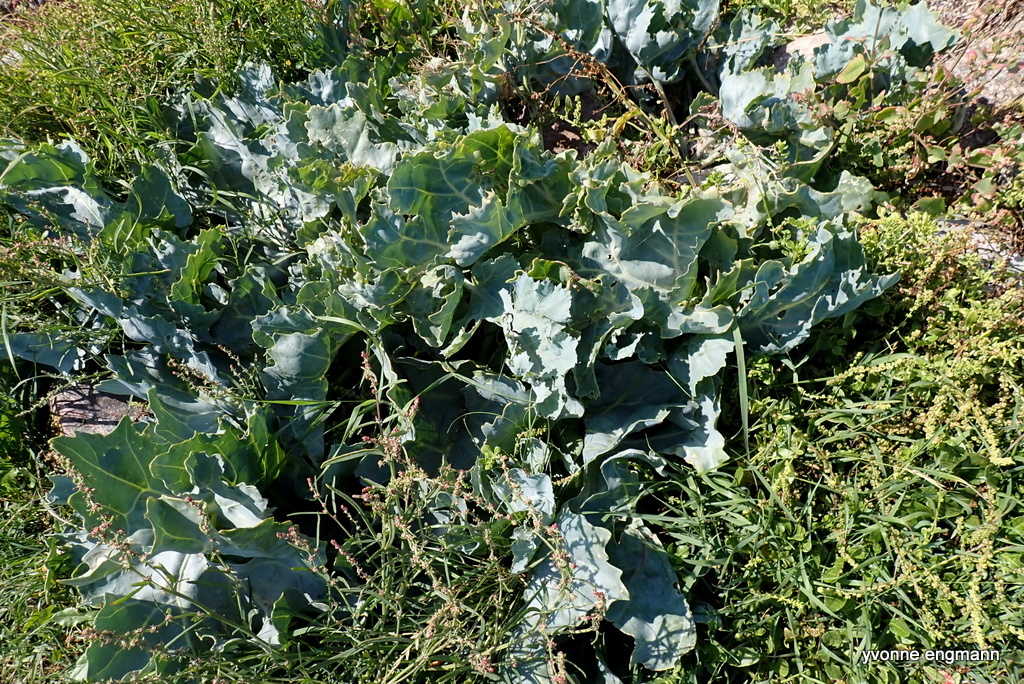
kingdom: Plantae
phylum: Tracheophyta
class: Magnoliopsida
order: Brassicales
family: Brassicaceae
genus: Crambe
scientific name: Crambe maritima
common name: Sea-kale
